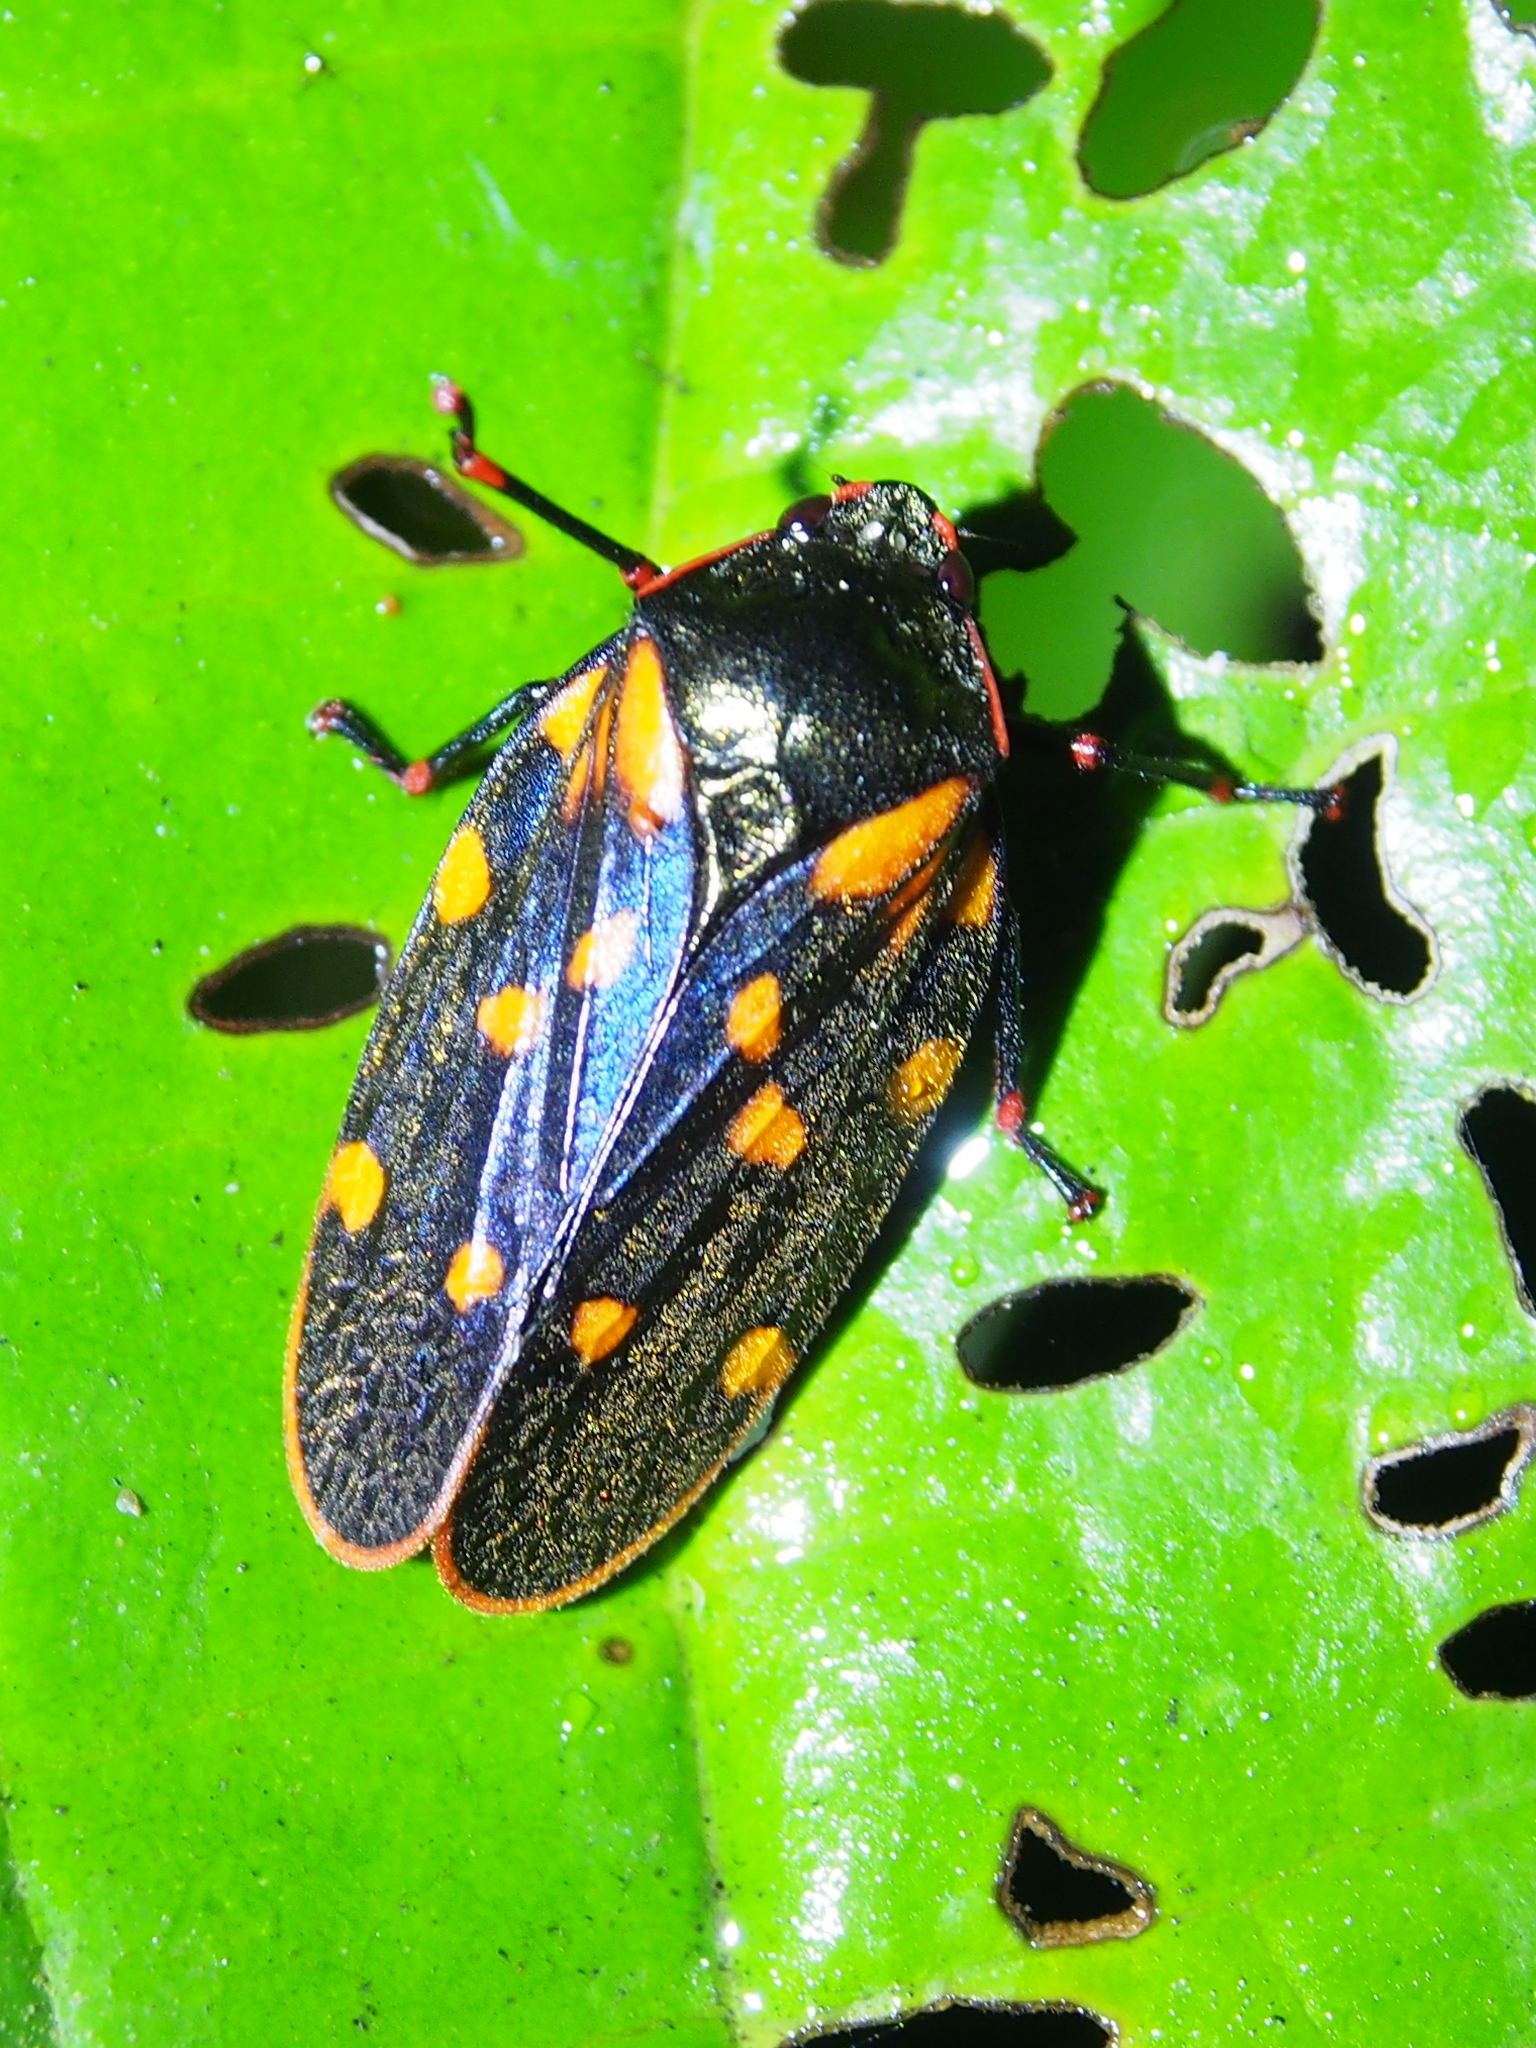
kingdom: Animalia
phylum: Arthropoda
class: Insecta
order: Hemiptera
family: Cercopidae
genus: Mahanarva
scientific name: Mahanarva costaricensis
